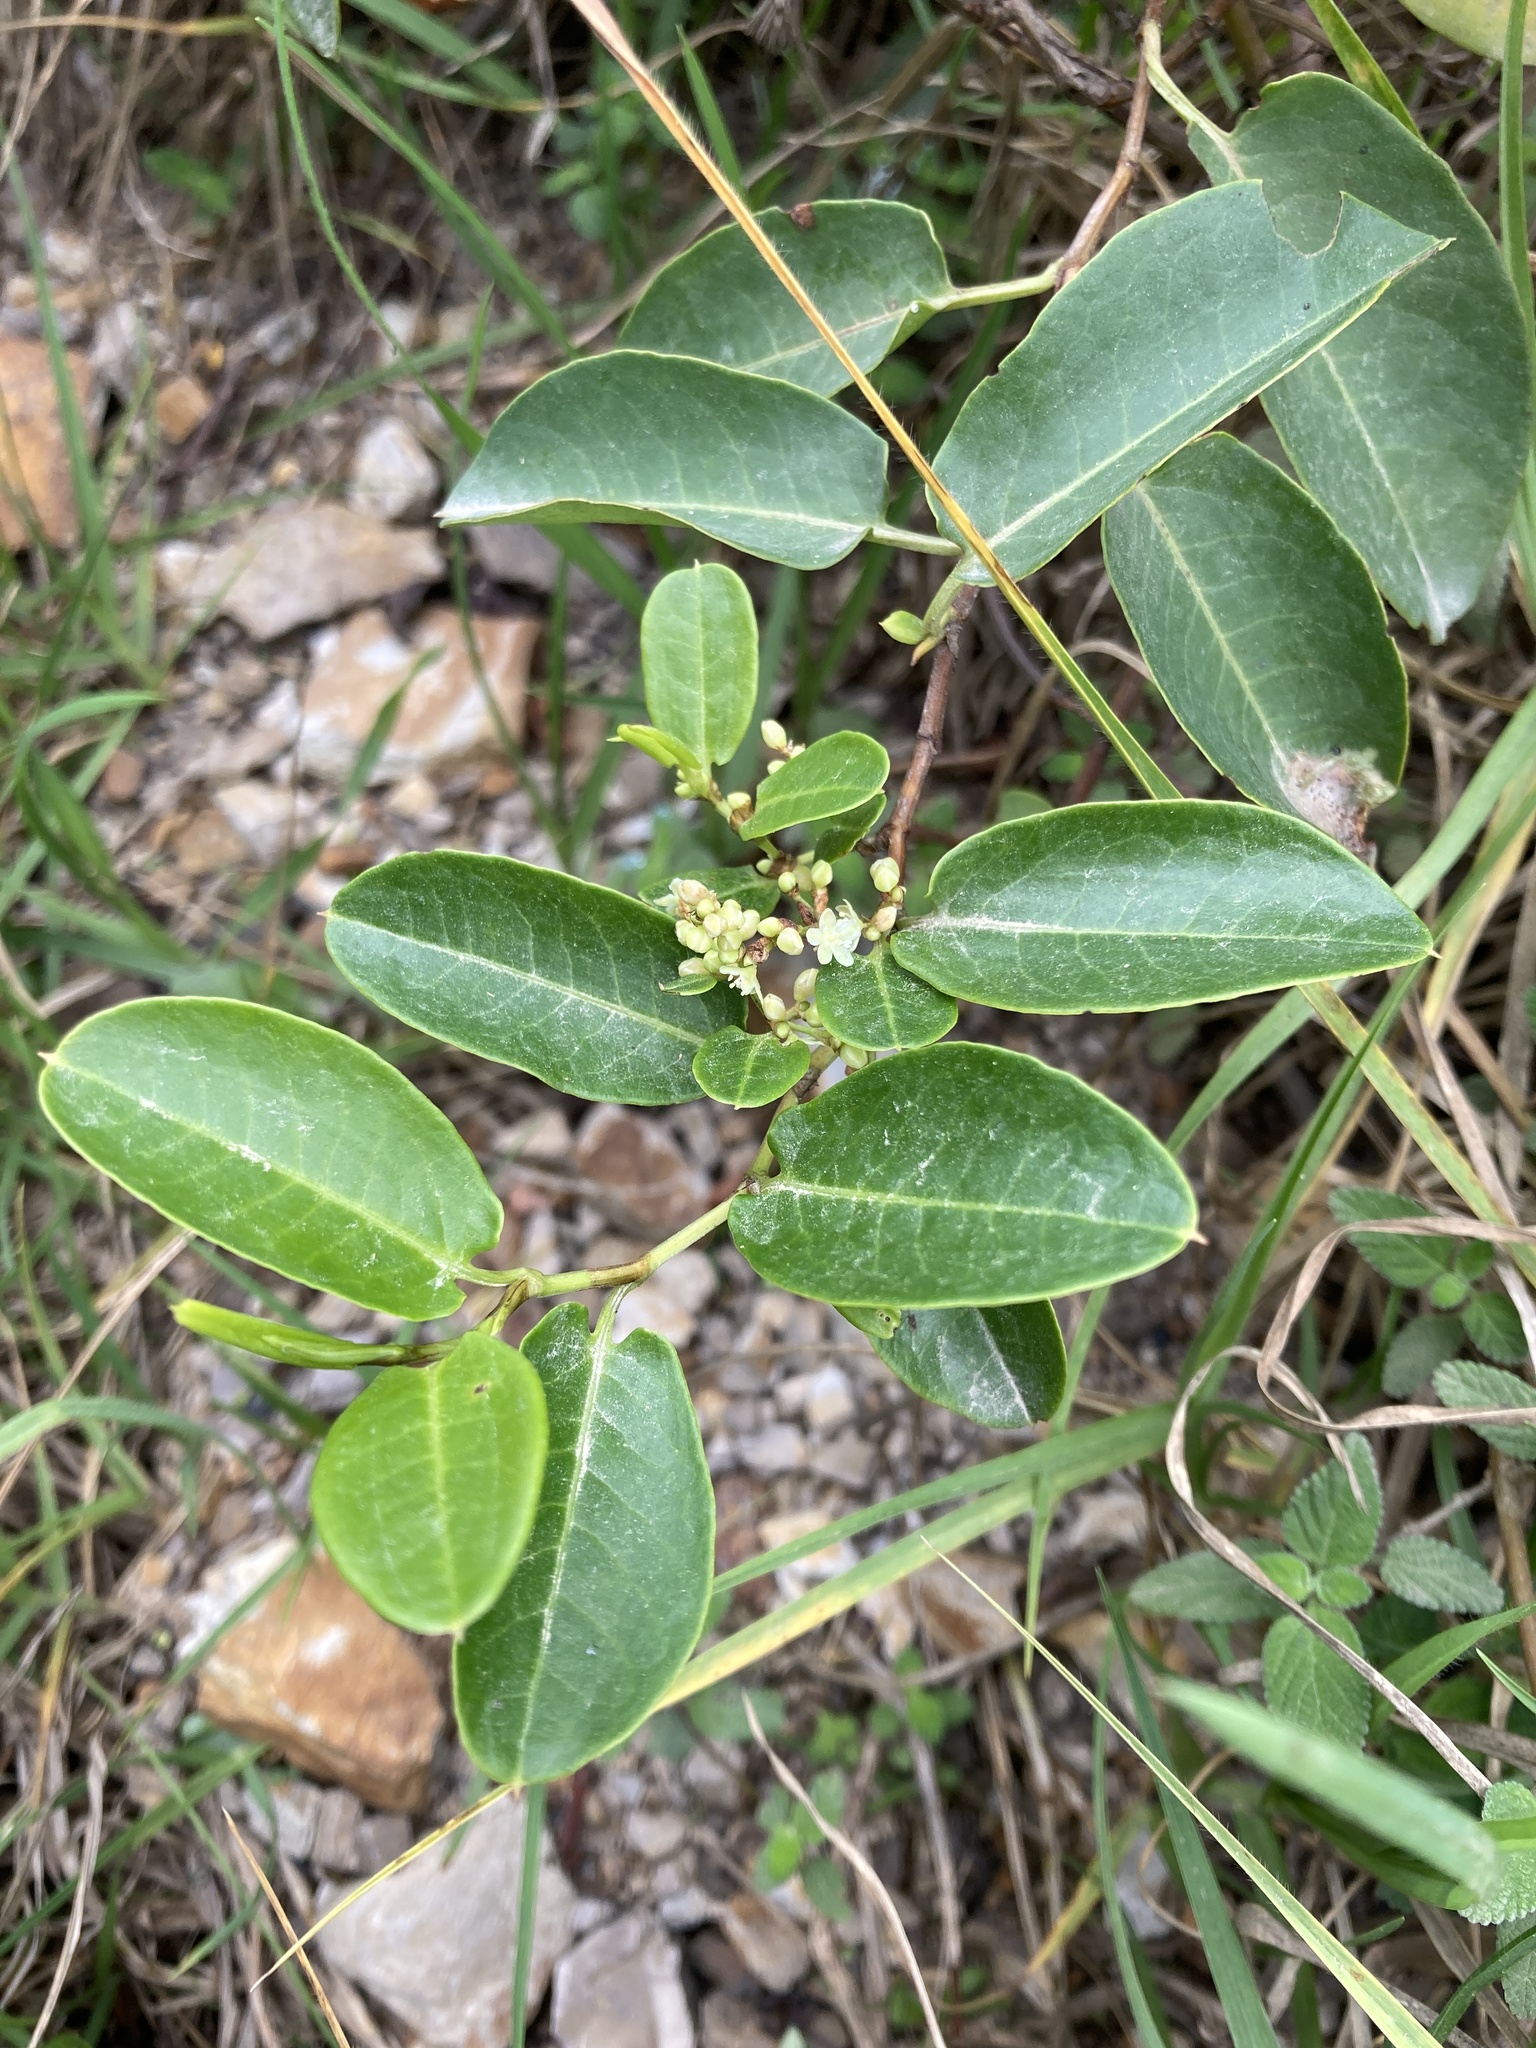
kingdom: Plantae
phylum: Tracheophyta
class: Magnoliopsida
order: Caryophyllales
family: Polygonaceae
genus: Muehlenbeckia
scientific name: Muehlenbeckia tamnifolia
